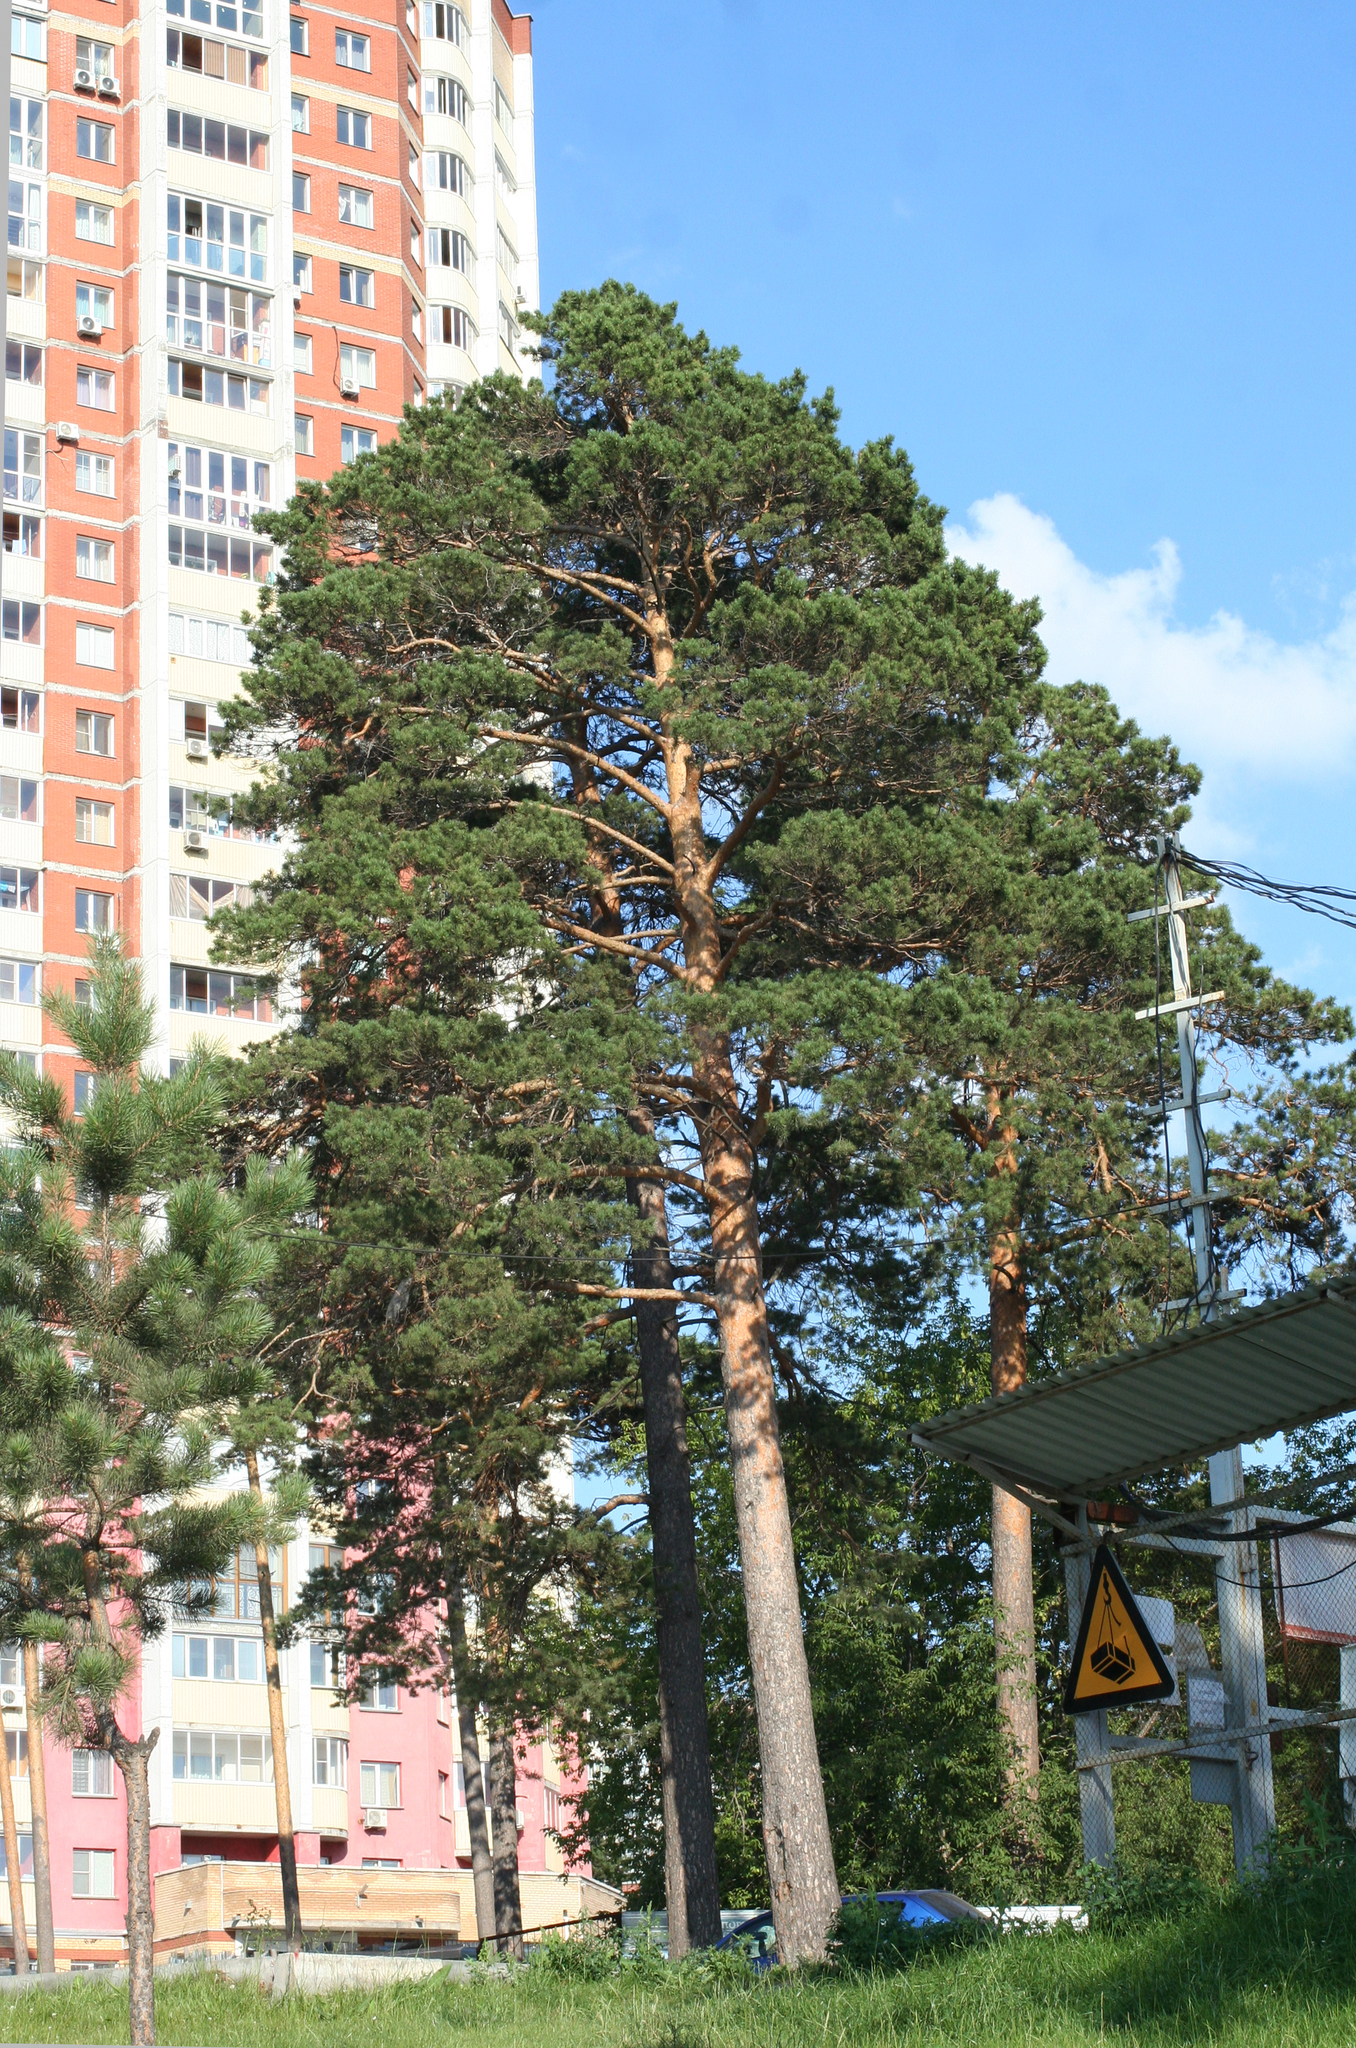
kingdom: Plantae
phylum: Tracheophyta
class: Pinopsida
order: Pinales
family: Pinaceae
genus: Pinus
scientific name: Pinus sylvestris
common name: Scots pine
